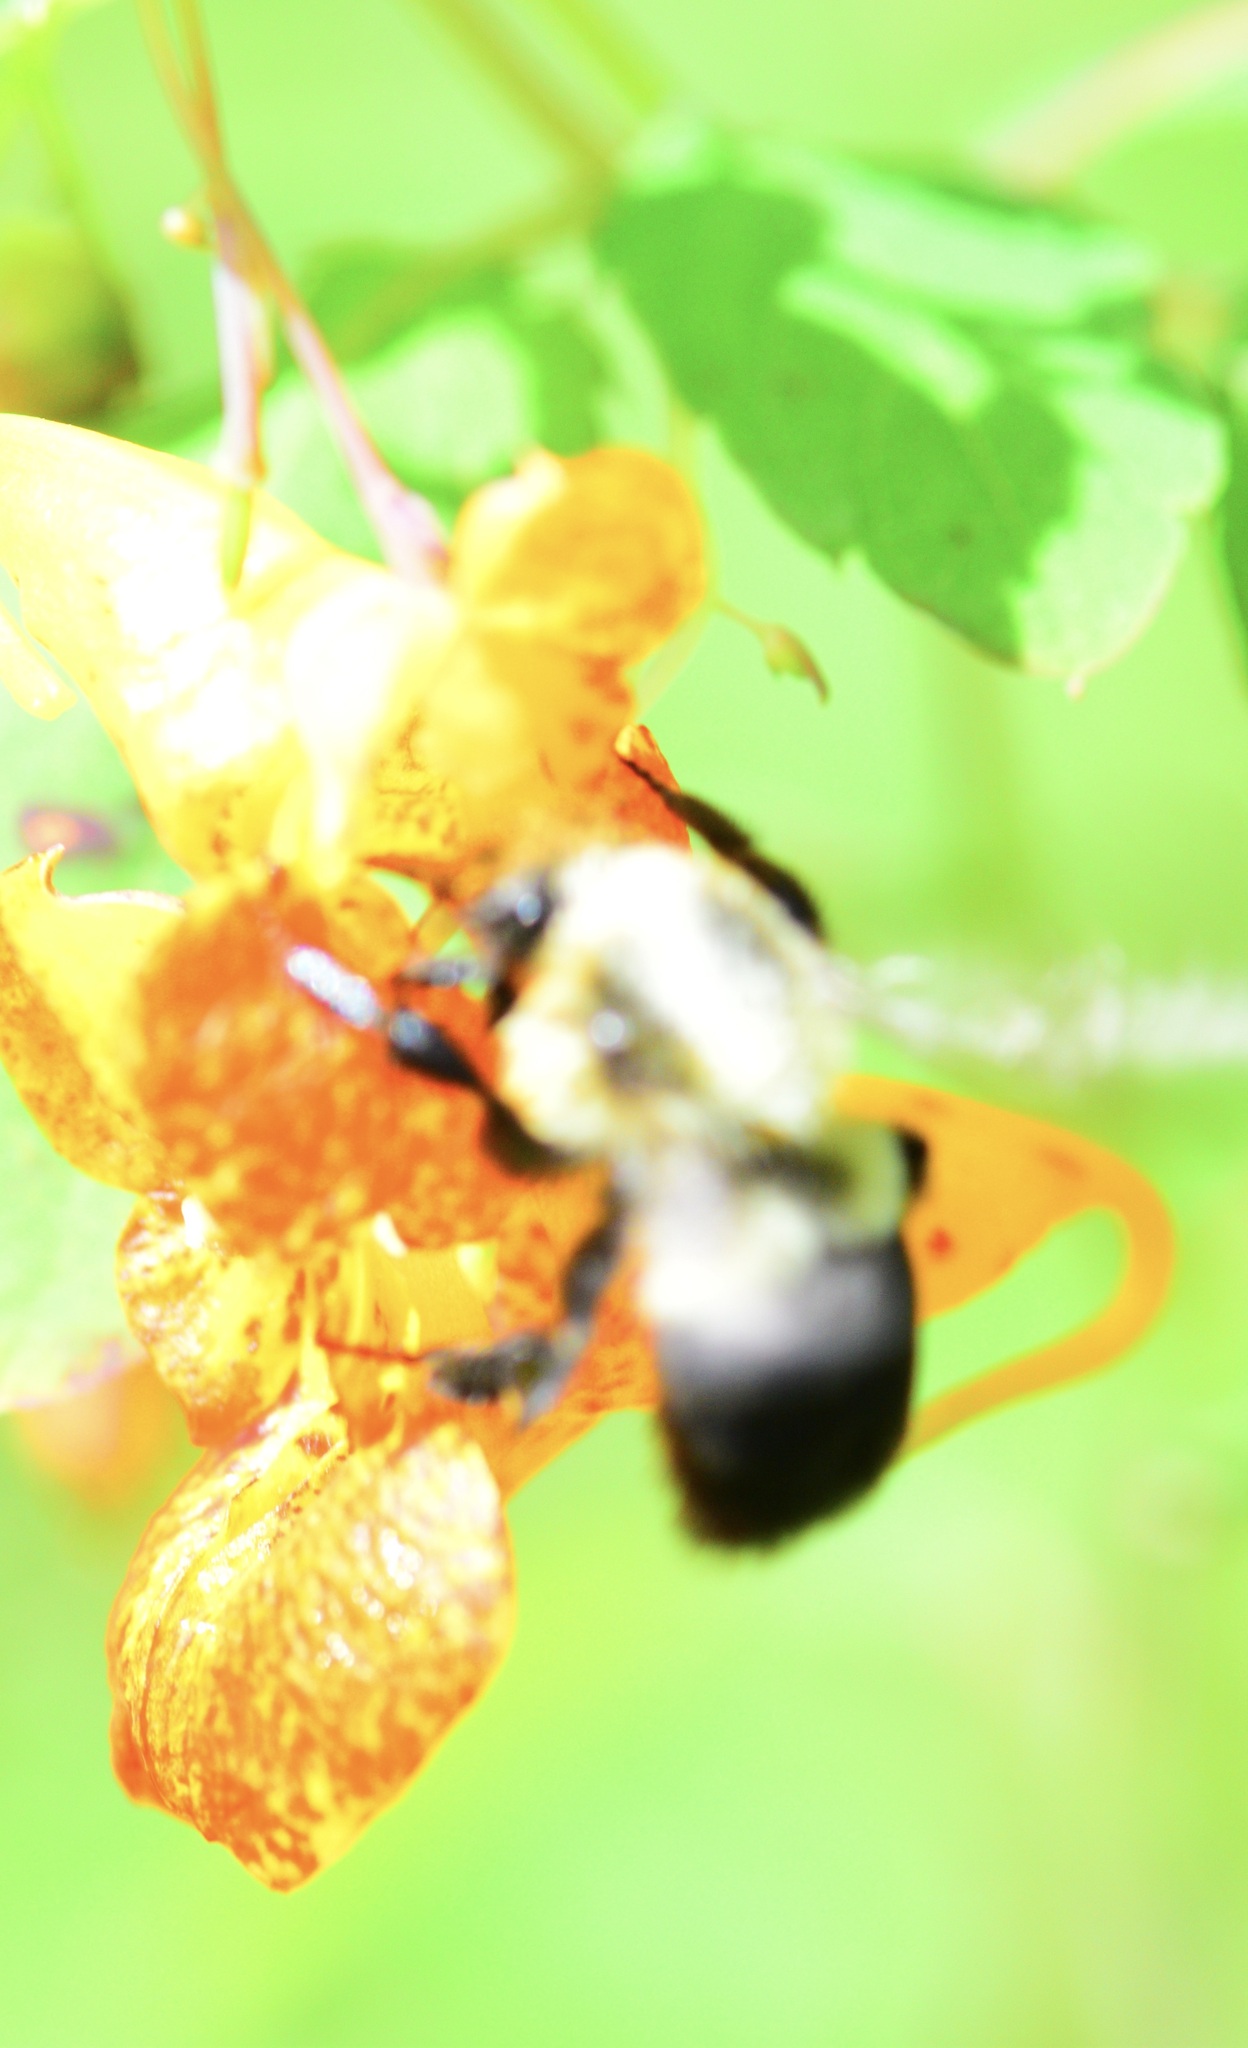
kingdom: Animalia
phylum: Arthropoda
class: Insecta
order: Hymenoptera
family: Apidae
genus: Bombus
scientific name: Bombus impatiens
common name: Common eastern bumble bee
